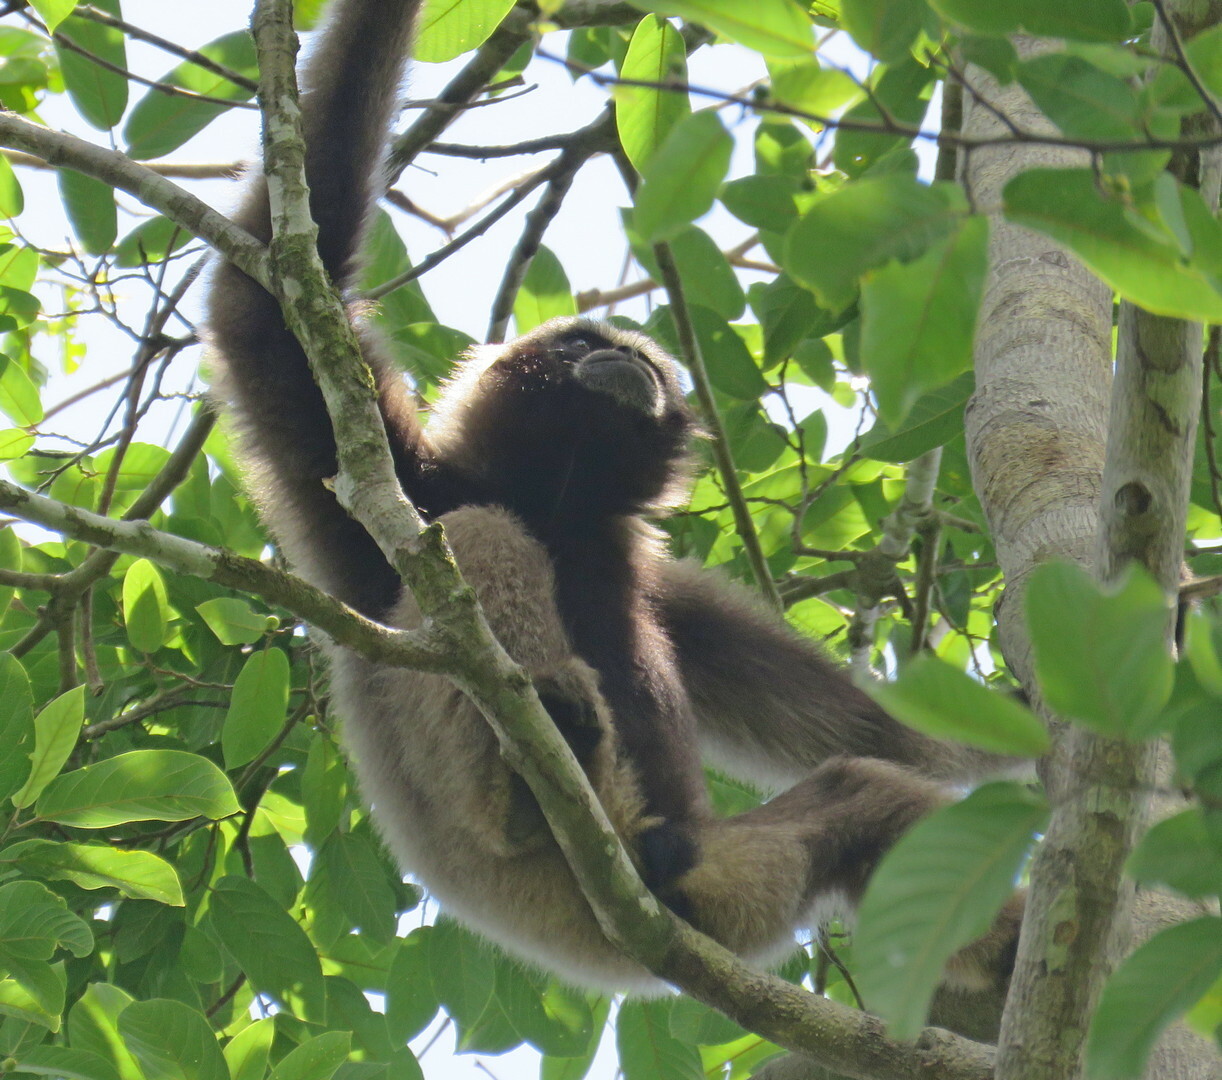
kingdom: Animalia
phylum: Chordata
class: Mammalia
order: Primates
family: Hylobatidae
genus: Hylobates
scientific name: Hylobates funereus
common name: East bornean gray gibbon
